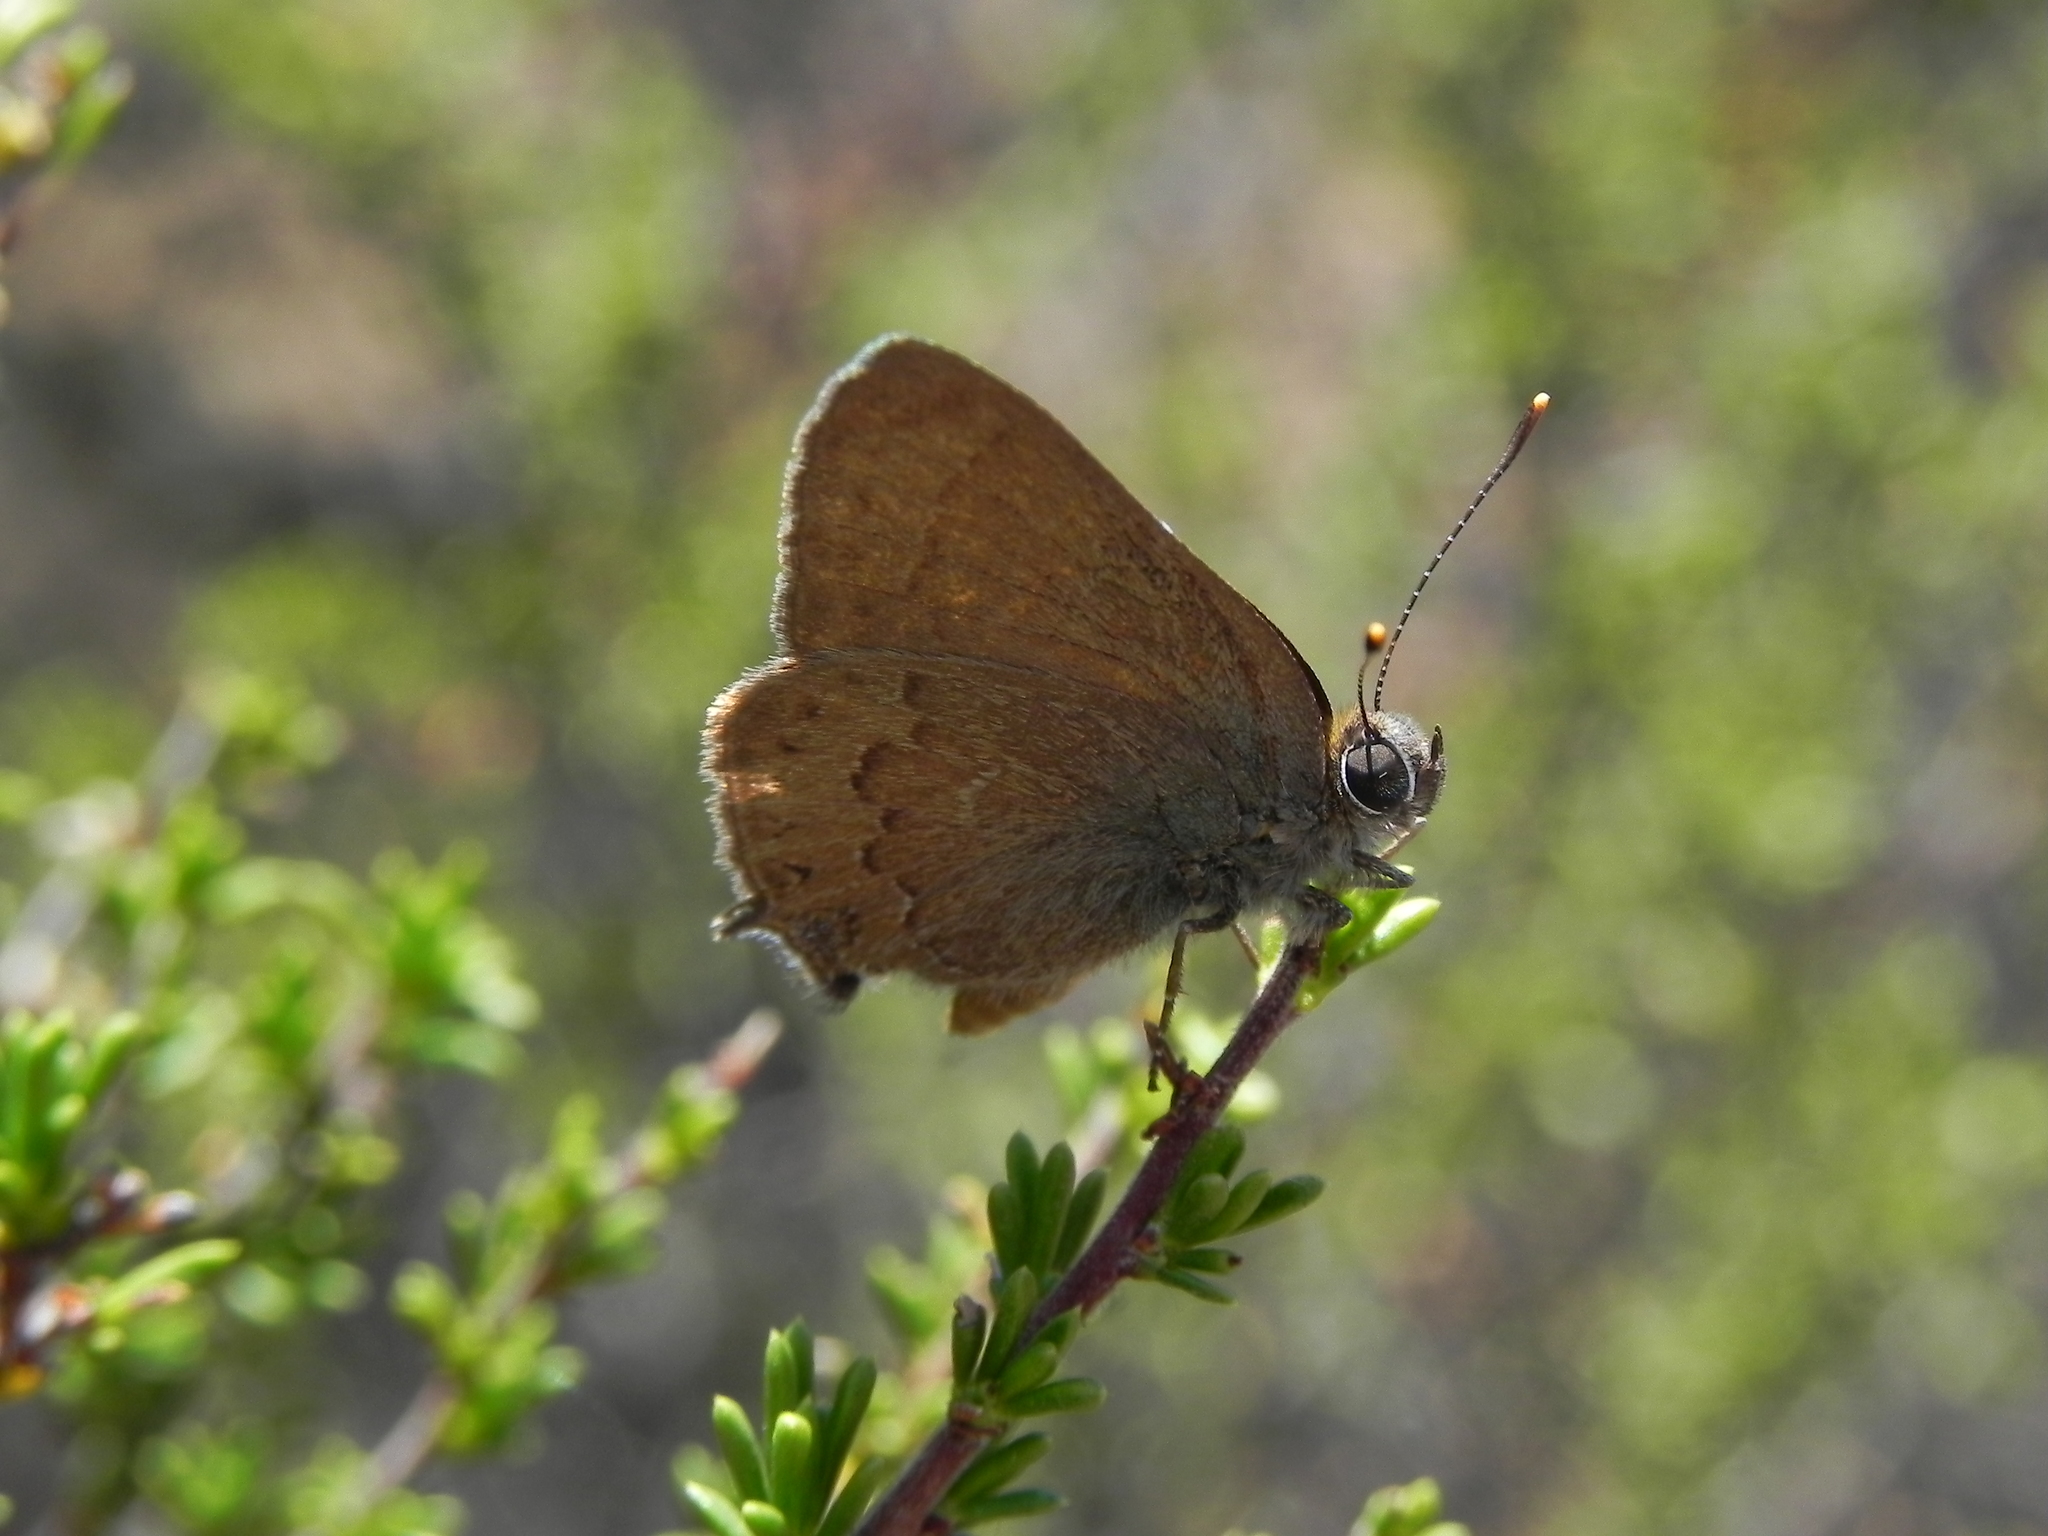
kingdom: Animalia
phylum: Arthropoda
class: Insecta
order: Lepidoptera
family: Lycaenidae
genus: Strymon
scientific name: Strymon saepium
